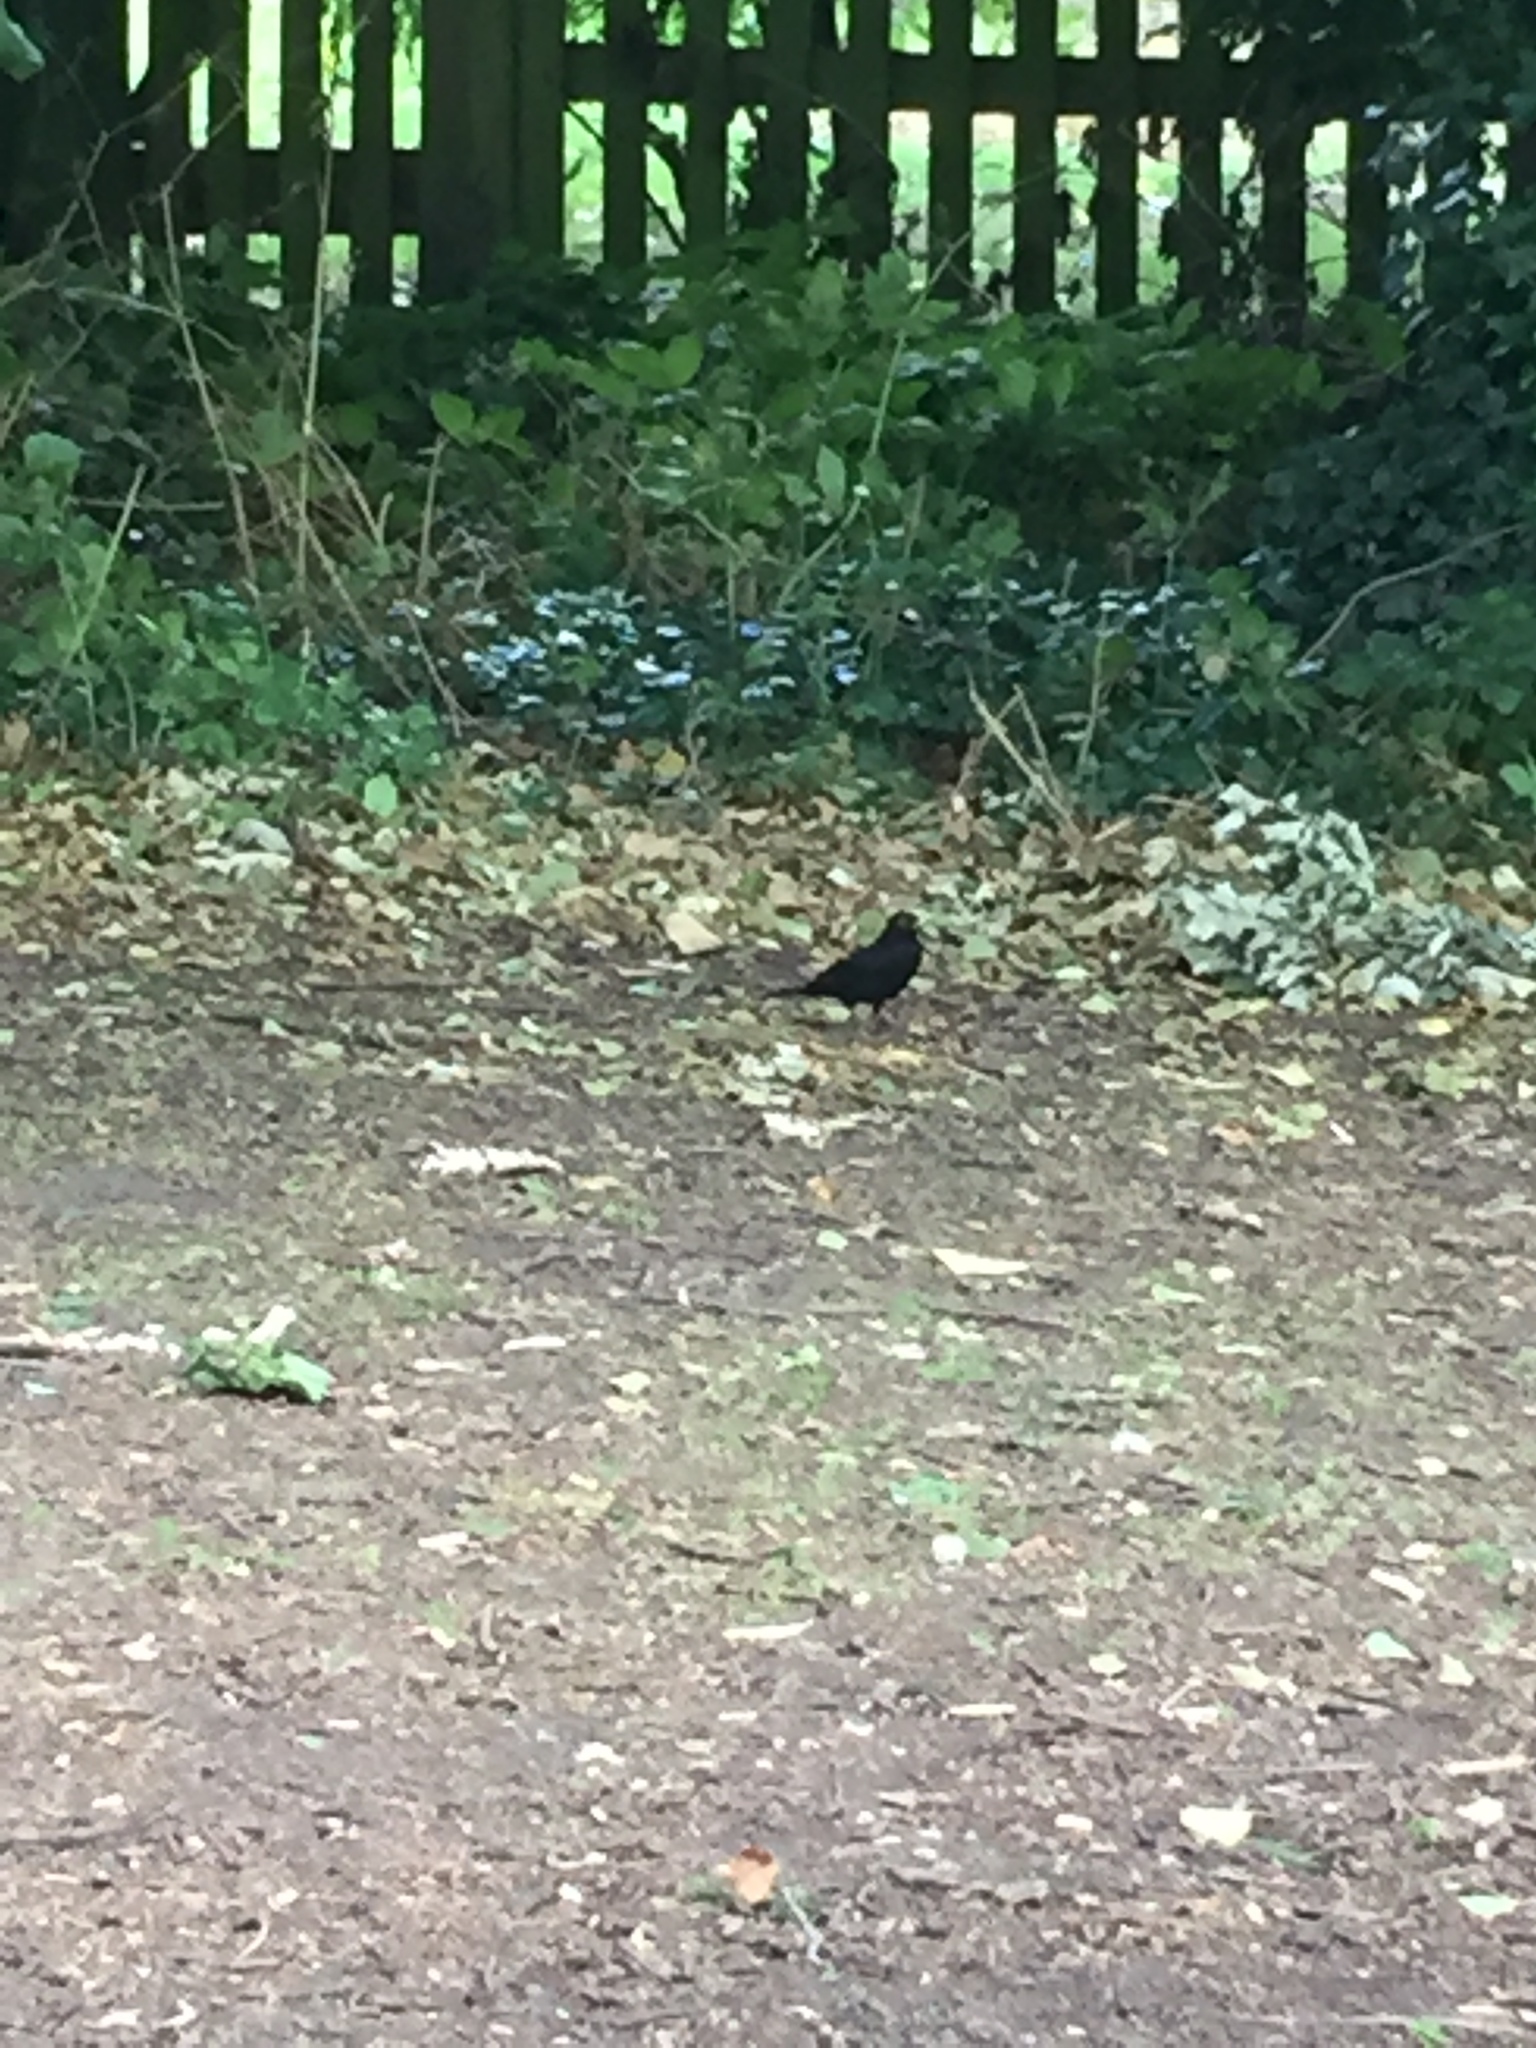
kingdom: Animalia
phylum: Chordata
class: Aves
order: Passeriformes
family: Turdidae
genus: Turdus
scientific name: Turdus merula
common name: Common blackbird
